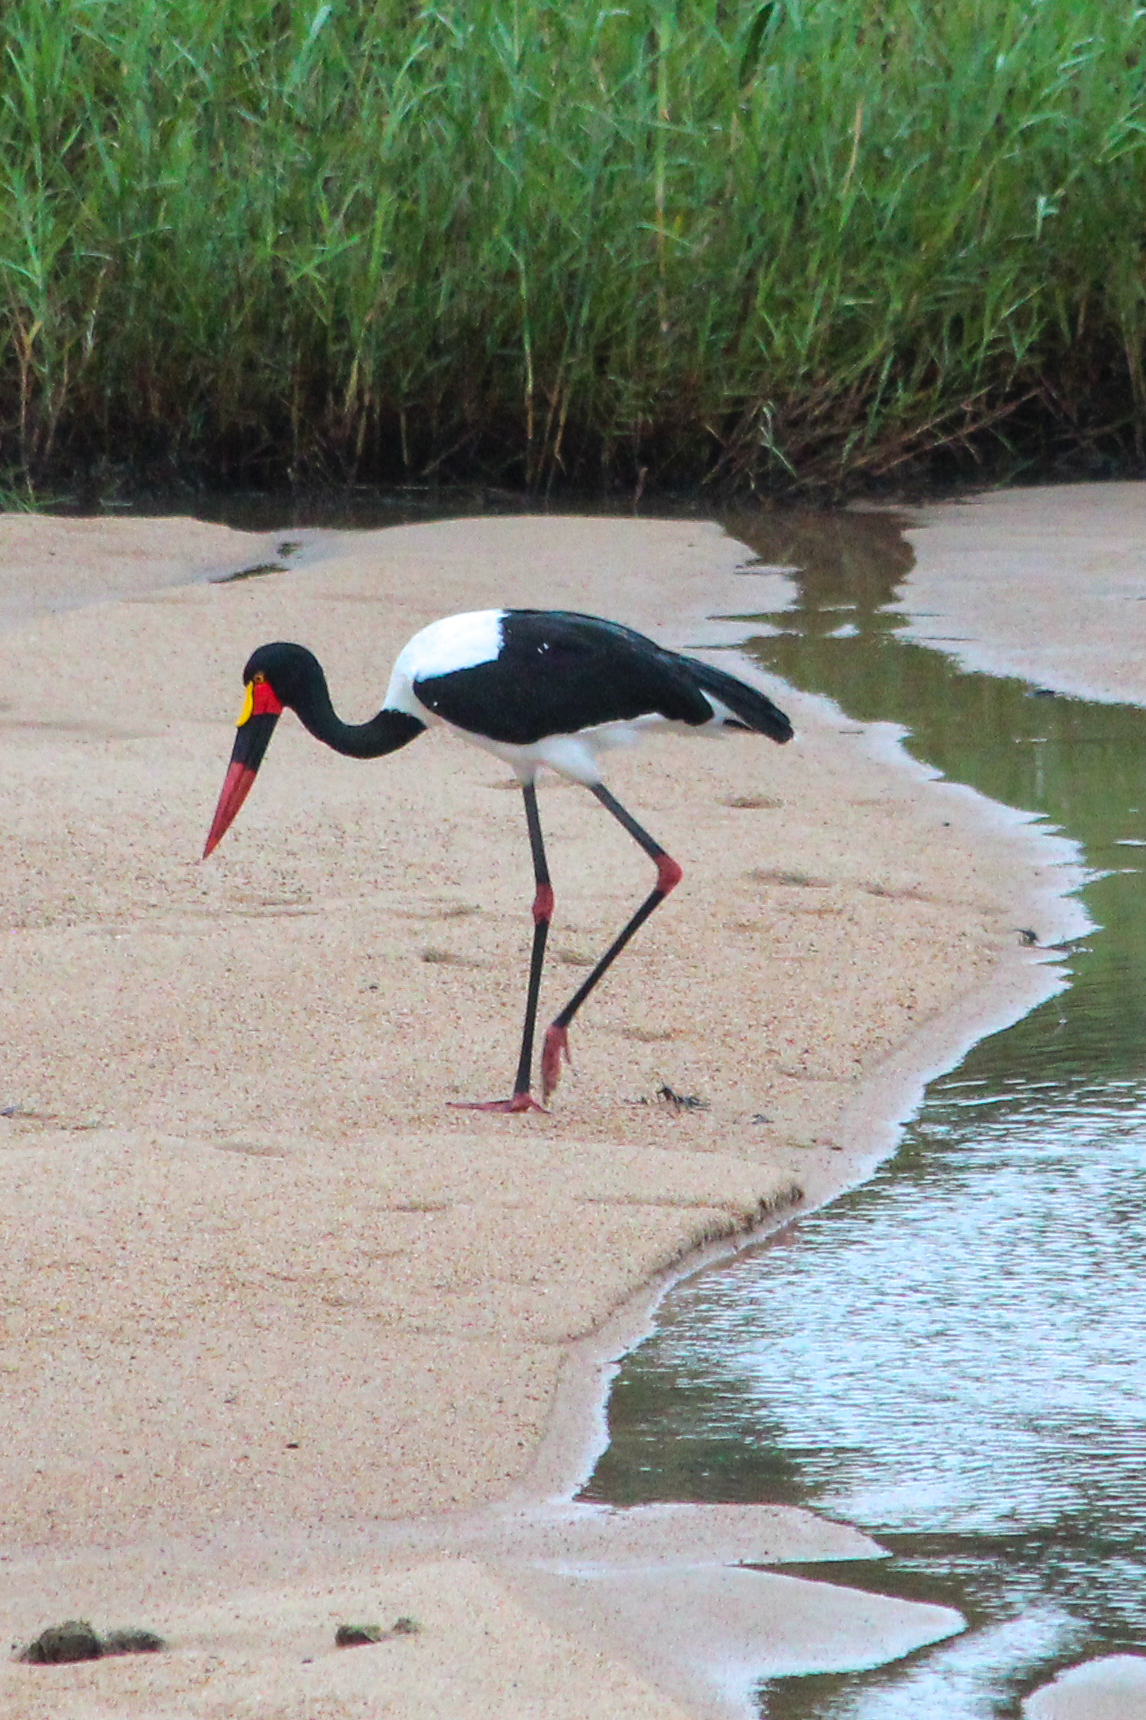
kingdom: Animalia
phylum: Chordata
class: Aves
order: Ciconiiformes
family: Ciconiidae
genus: Ephippiorhynchus
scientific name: Ephippiorhynchus senegalensis
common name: Saddle-billed stork
